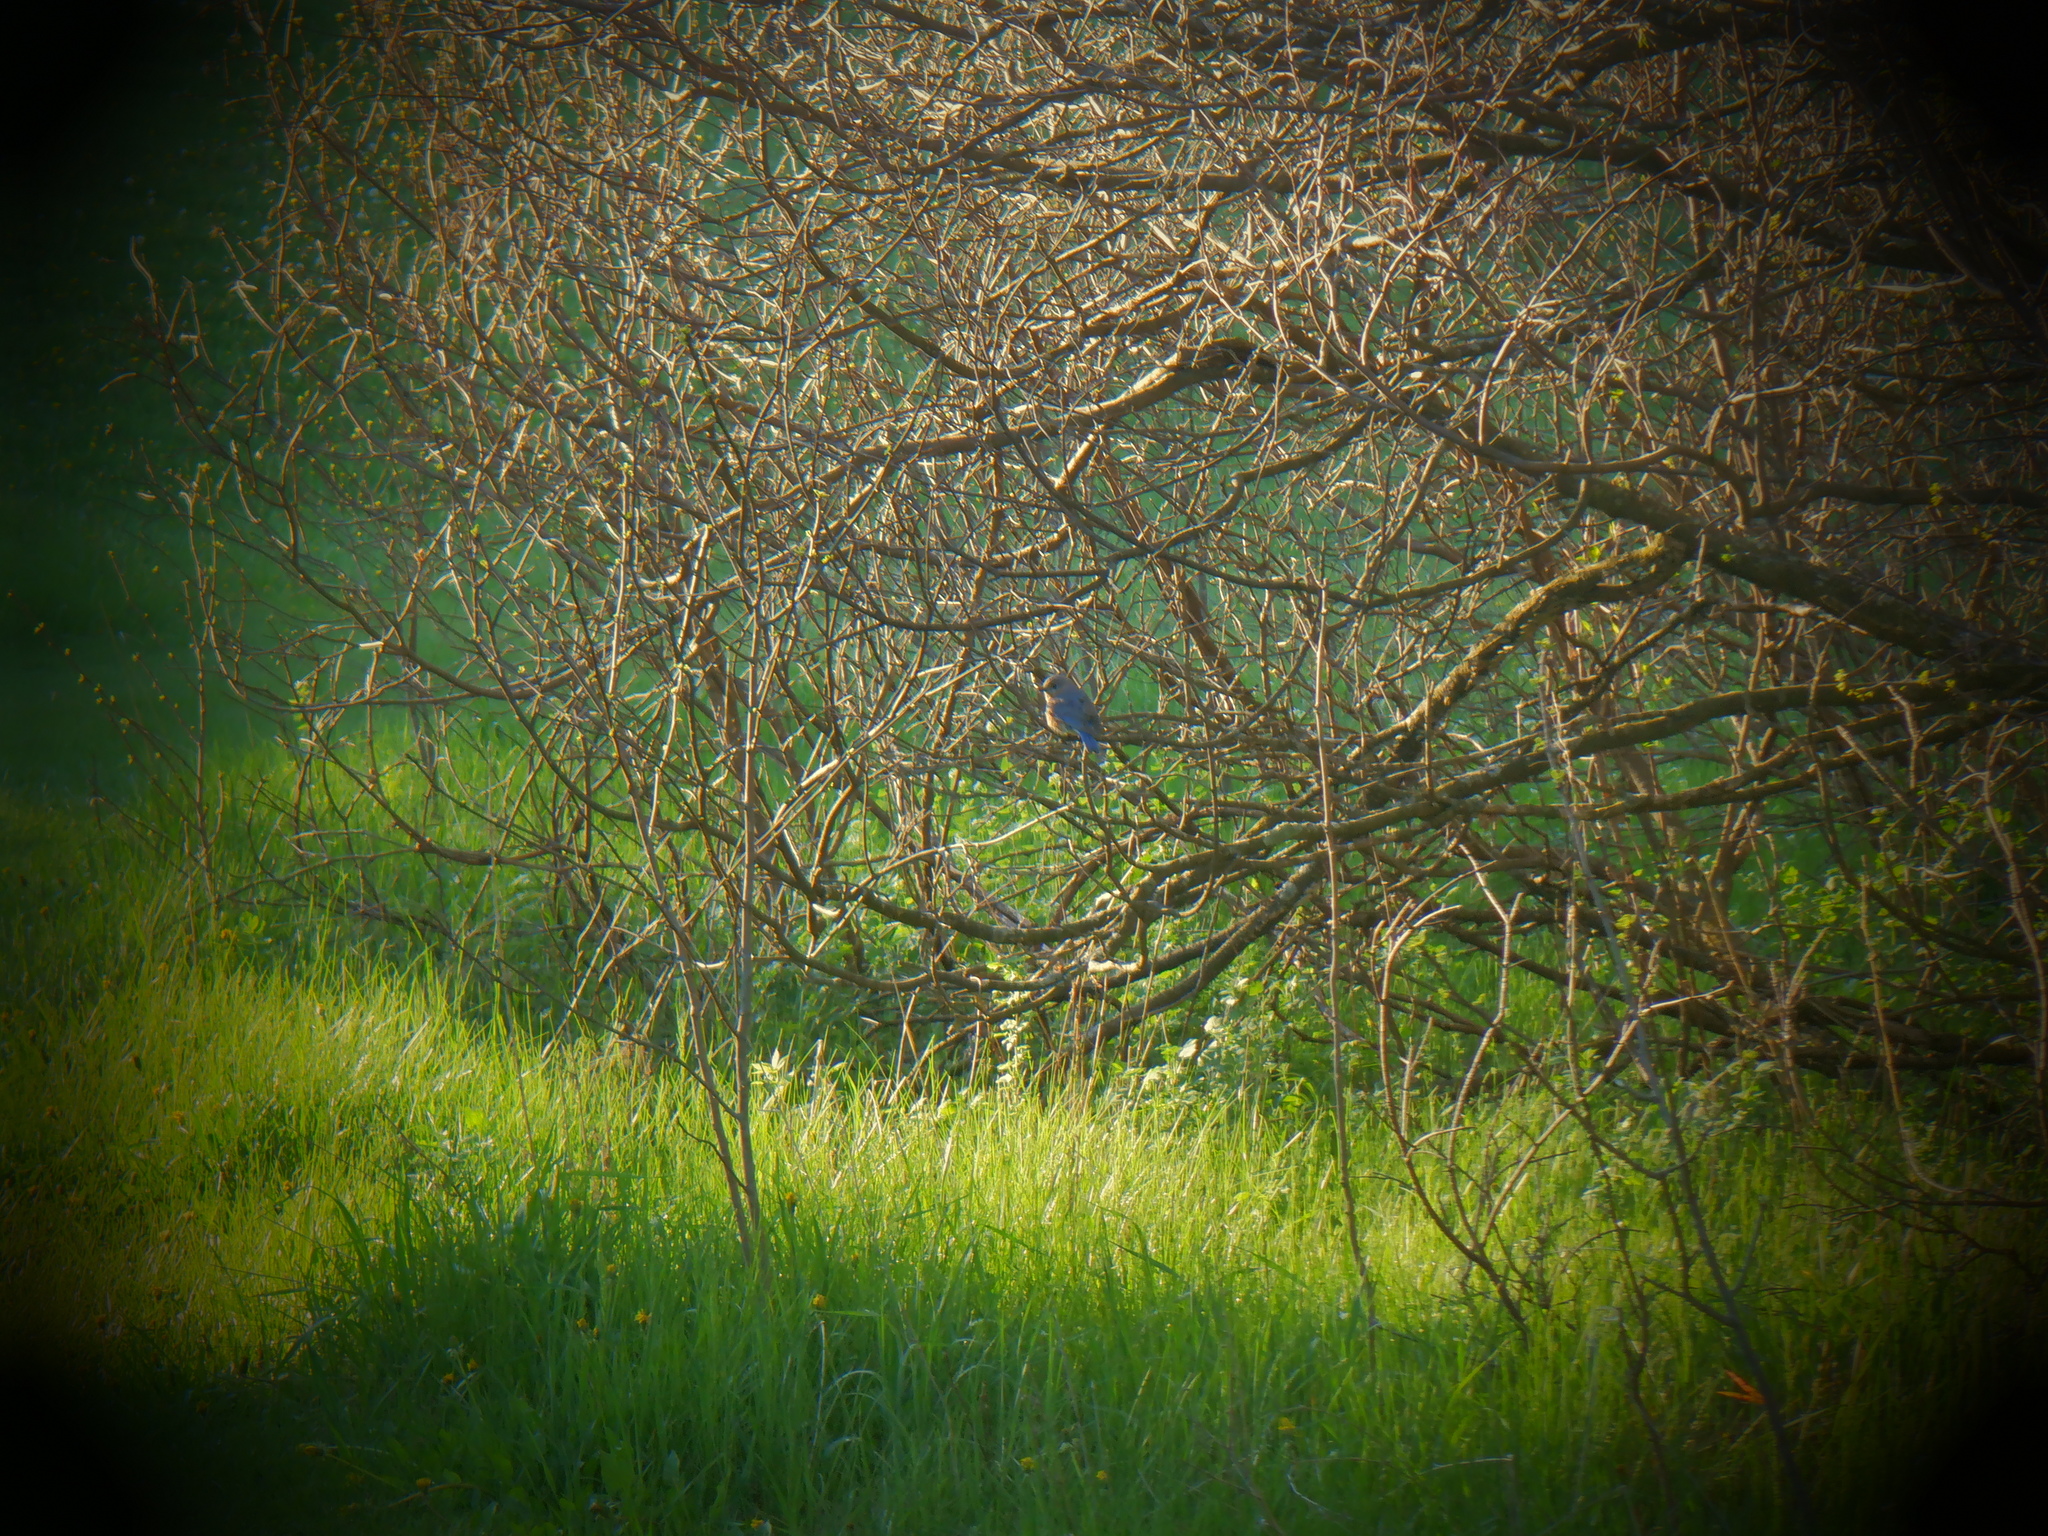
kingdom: Animalia
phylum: Chordata
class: Aves
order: Passeriformes
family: Turdidae
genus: Sialia
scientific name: Sialia sialis
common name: Eastern bluebird
